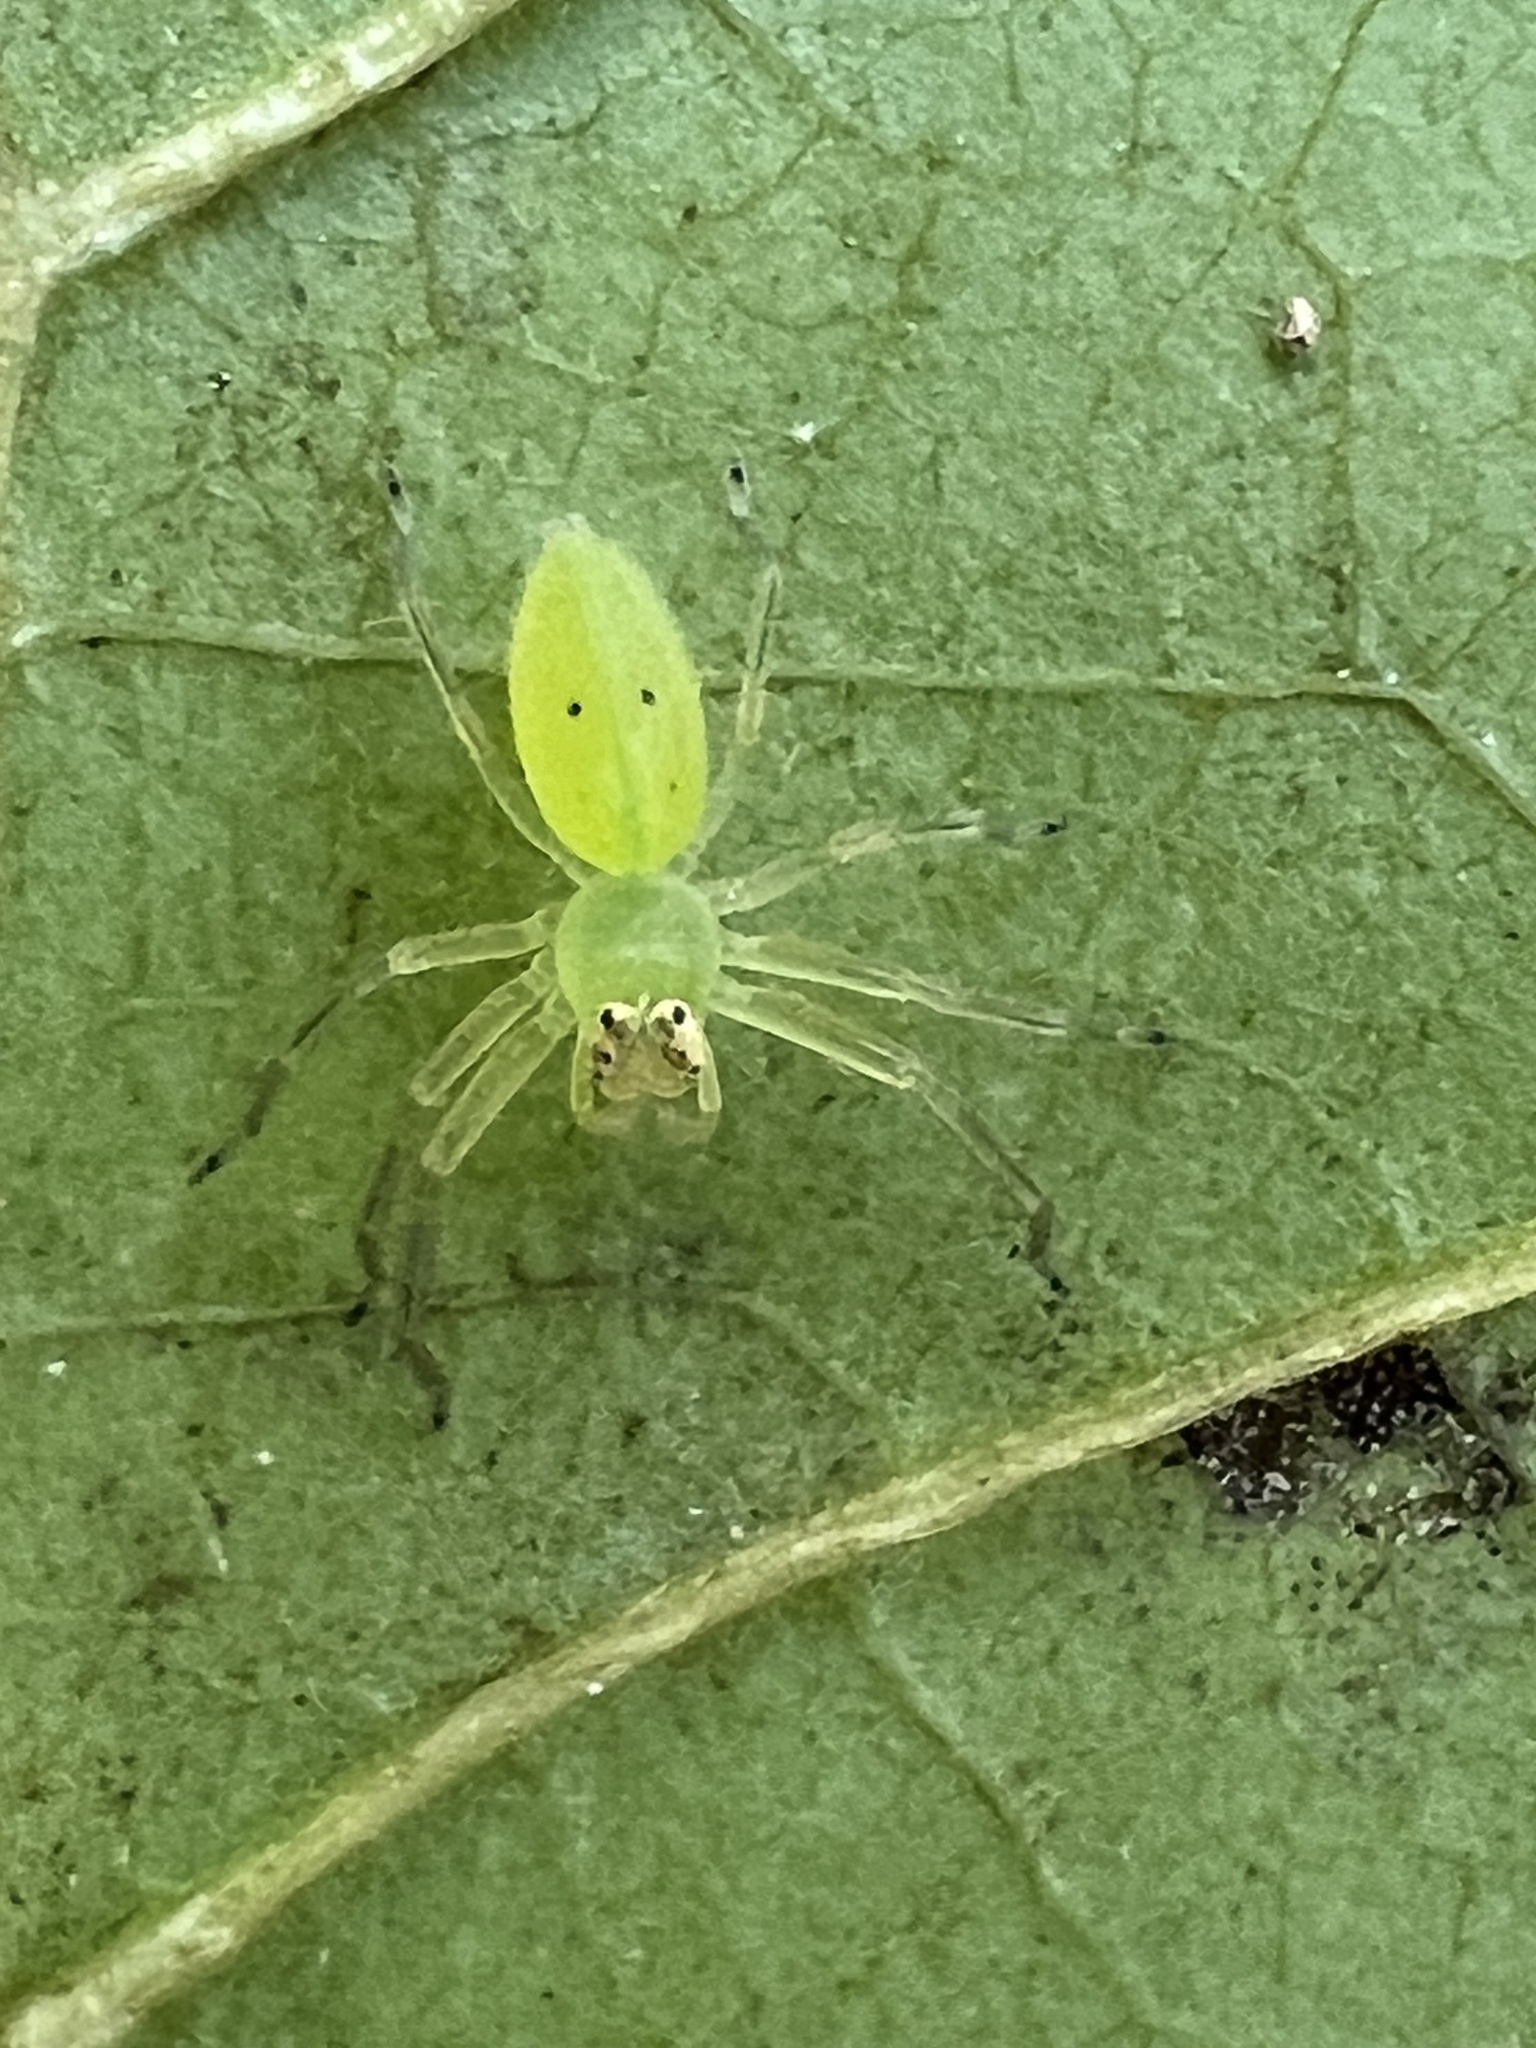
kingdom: Animalia
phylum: Arthropoda
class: Arachnida
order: Araneae
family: Salticidae
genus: Lyssomanes
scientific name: Lyssomanes viridis
